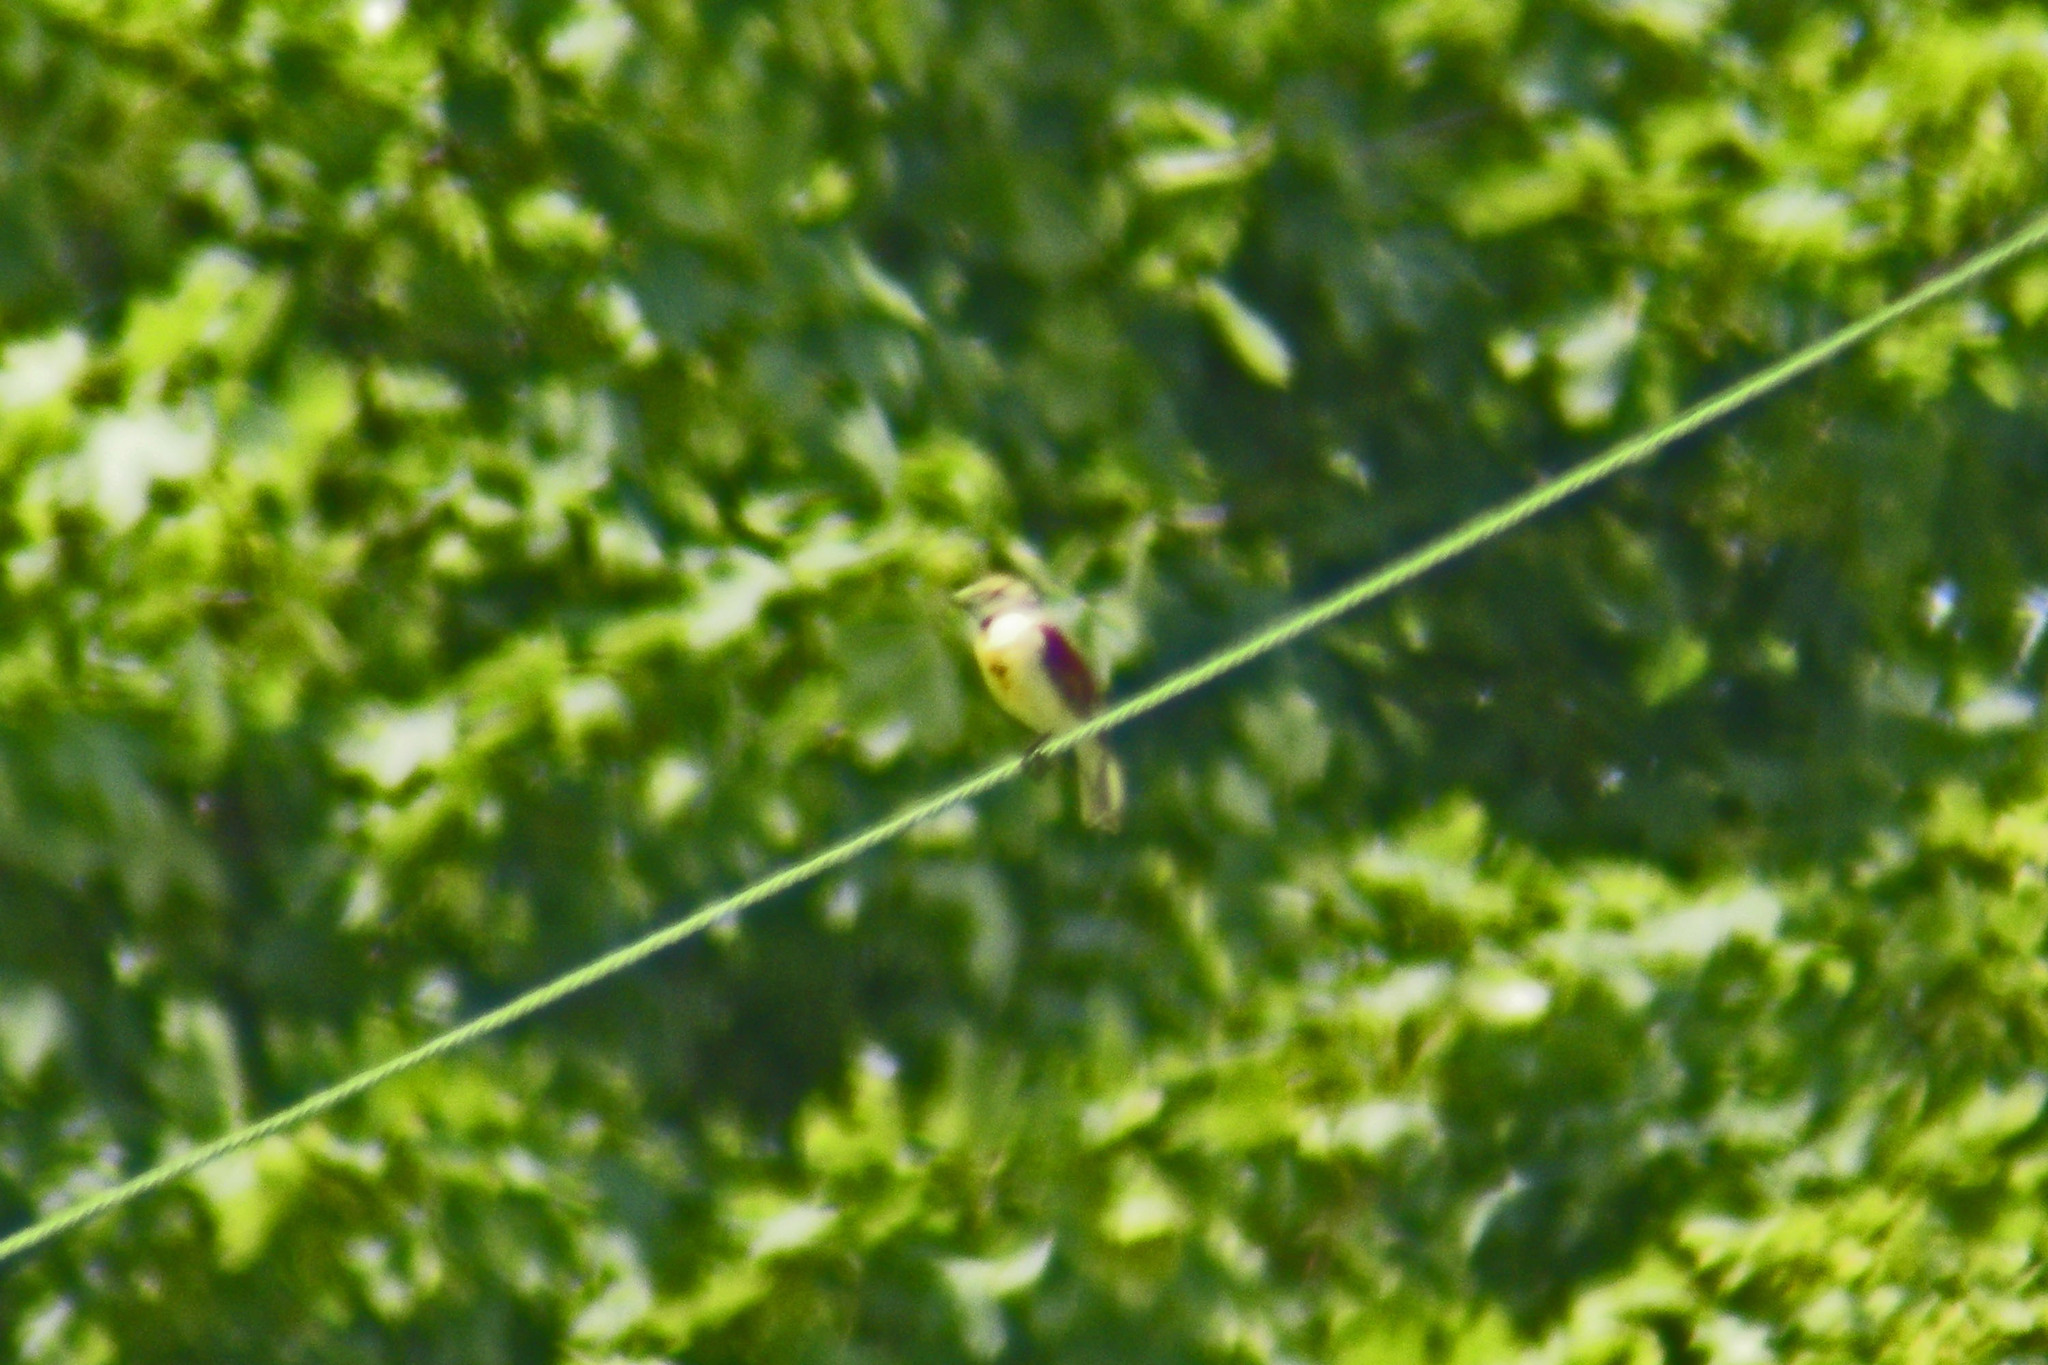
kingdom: Animalia
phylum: Chordata
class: Aves
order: Passeriformes
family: Cardinalidae
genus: Spiza
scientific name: Spiza americana
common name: Dickcissel
